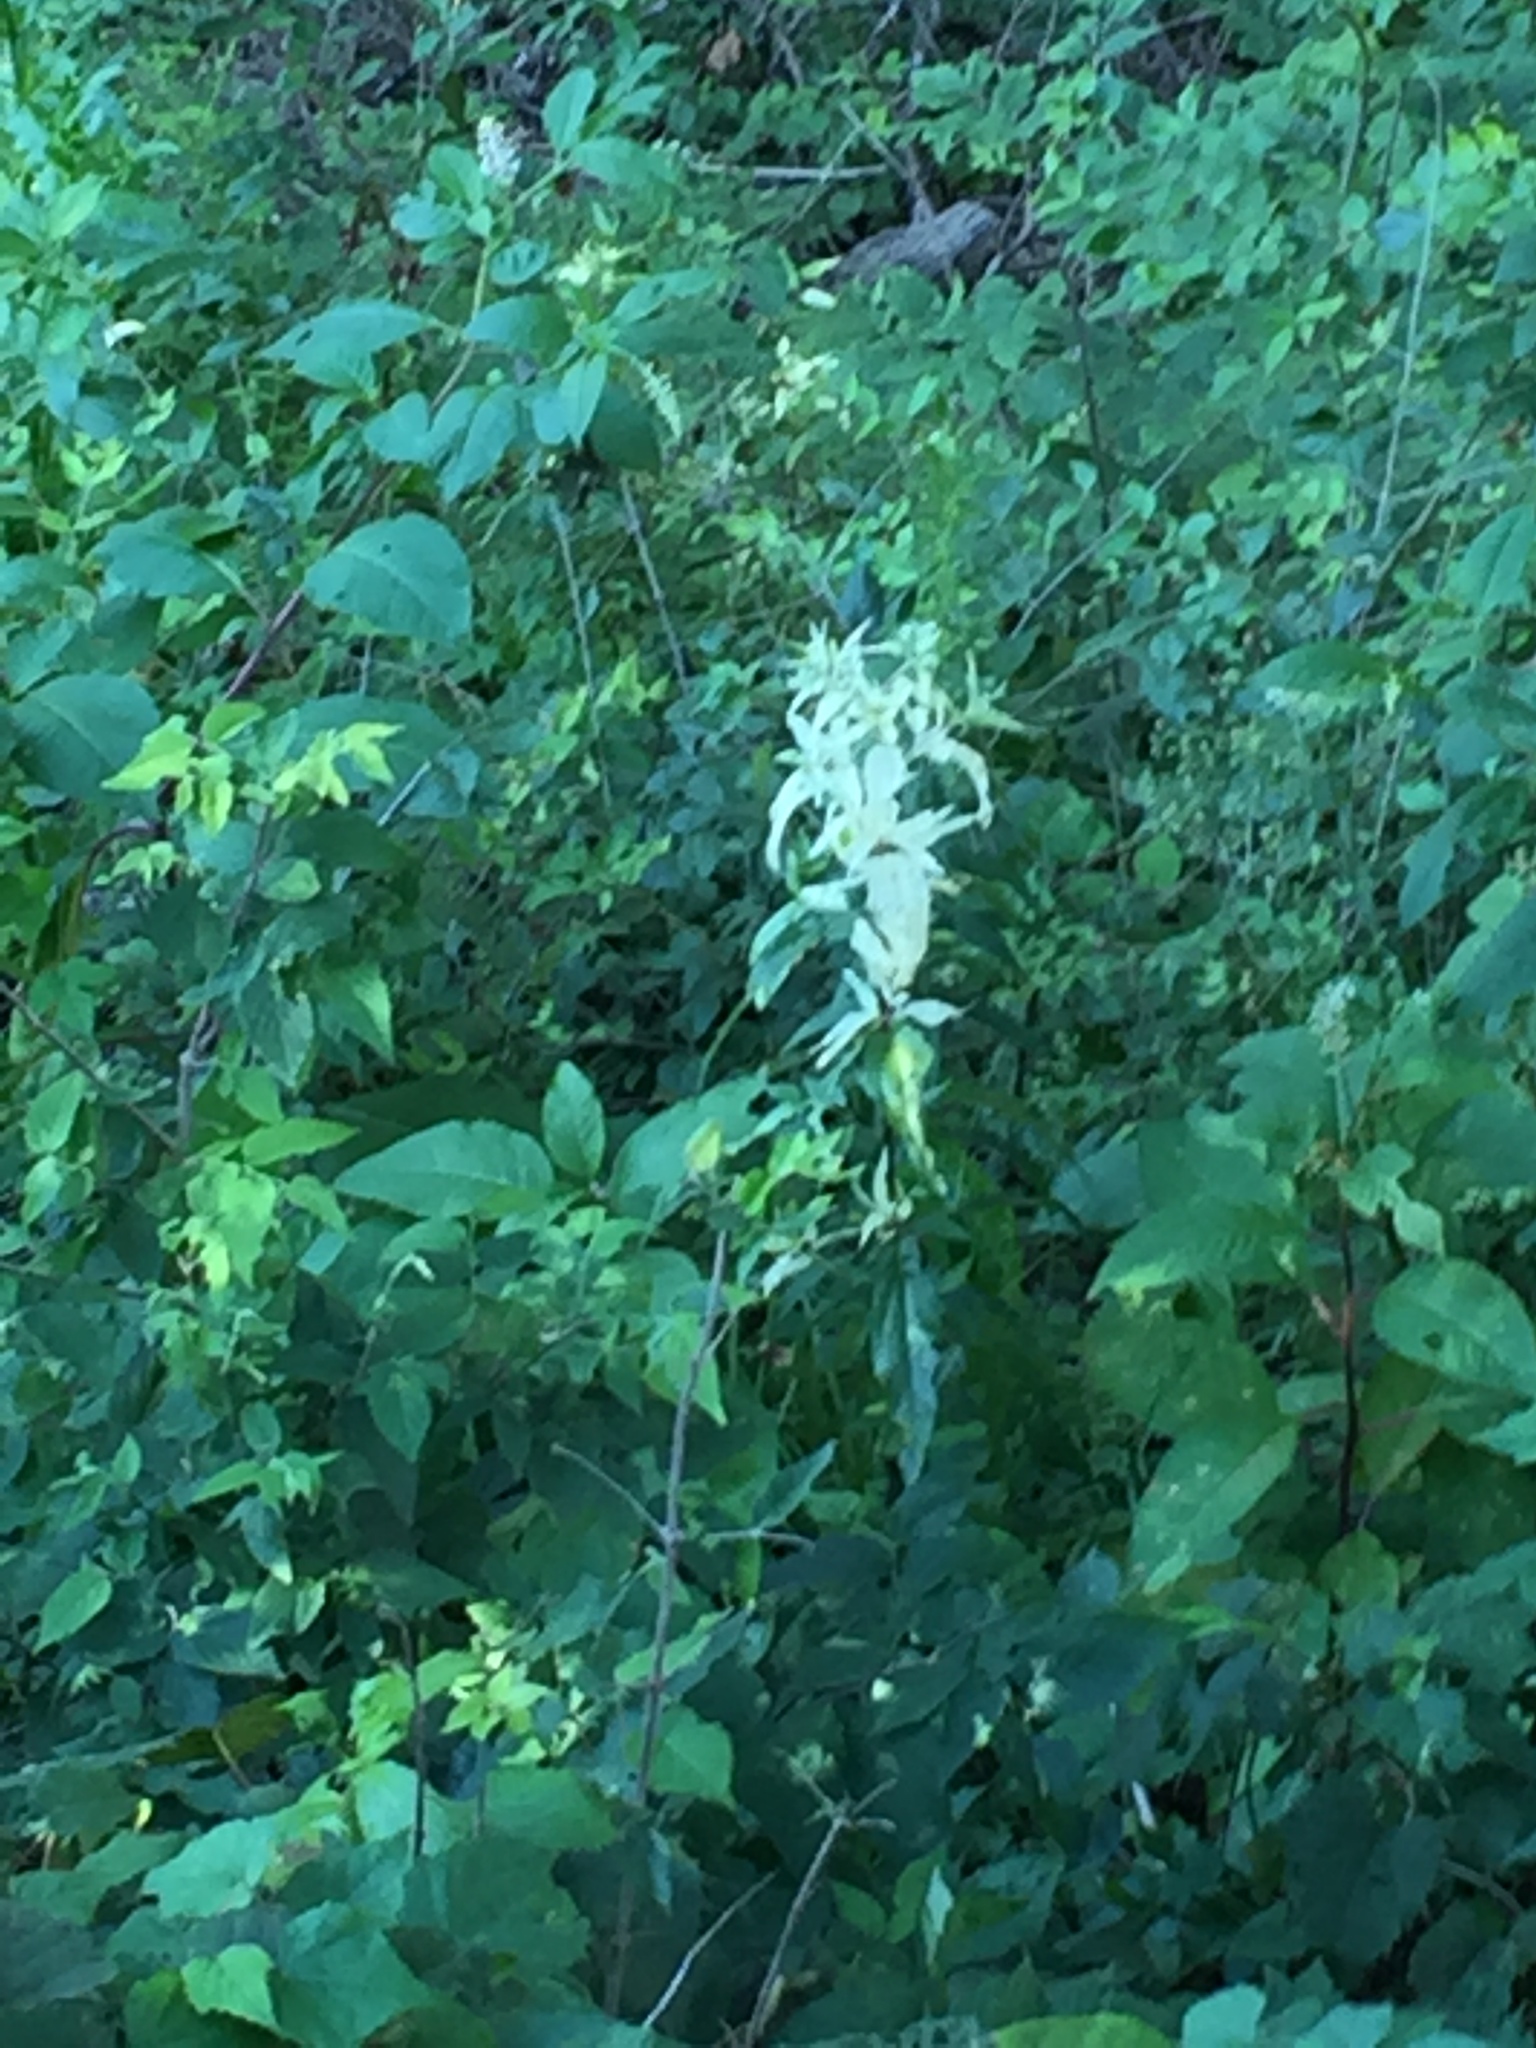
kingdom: Plantae
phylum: Tracheophyta
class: Magnoliopsida
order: Cucurbitales
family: Cucurbitaceae
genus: Echinocystis
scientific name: Echinocystis lobata
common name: Wild cucumber
